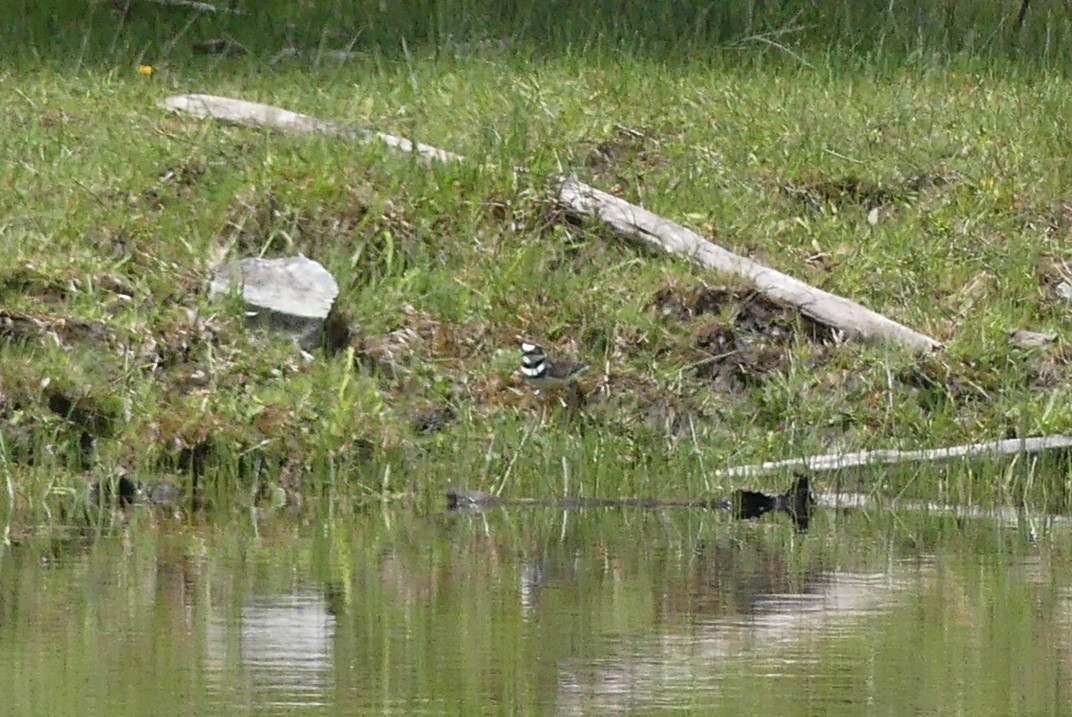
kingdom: Animalia
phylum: Chordata
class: Aves
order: Charadriiformes
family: Charadriidae
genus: Charadrius
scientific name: Charadrius vociferus
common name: Killdeer
